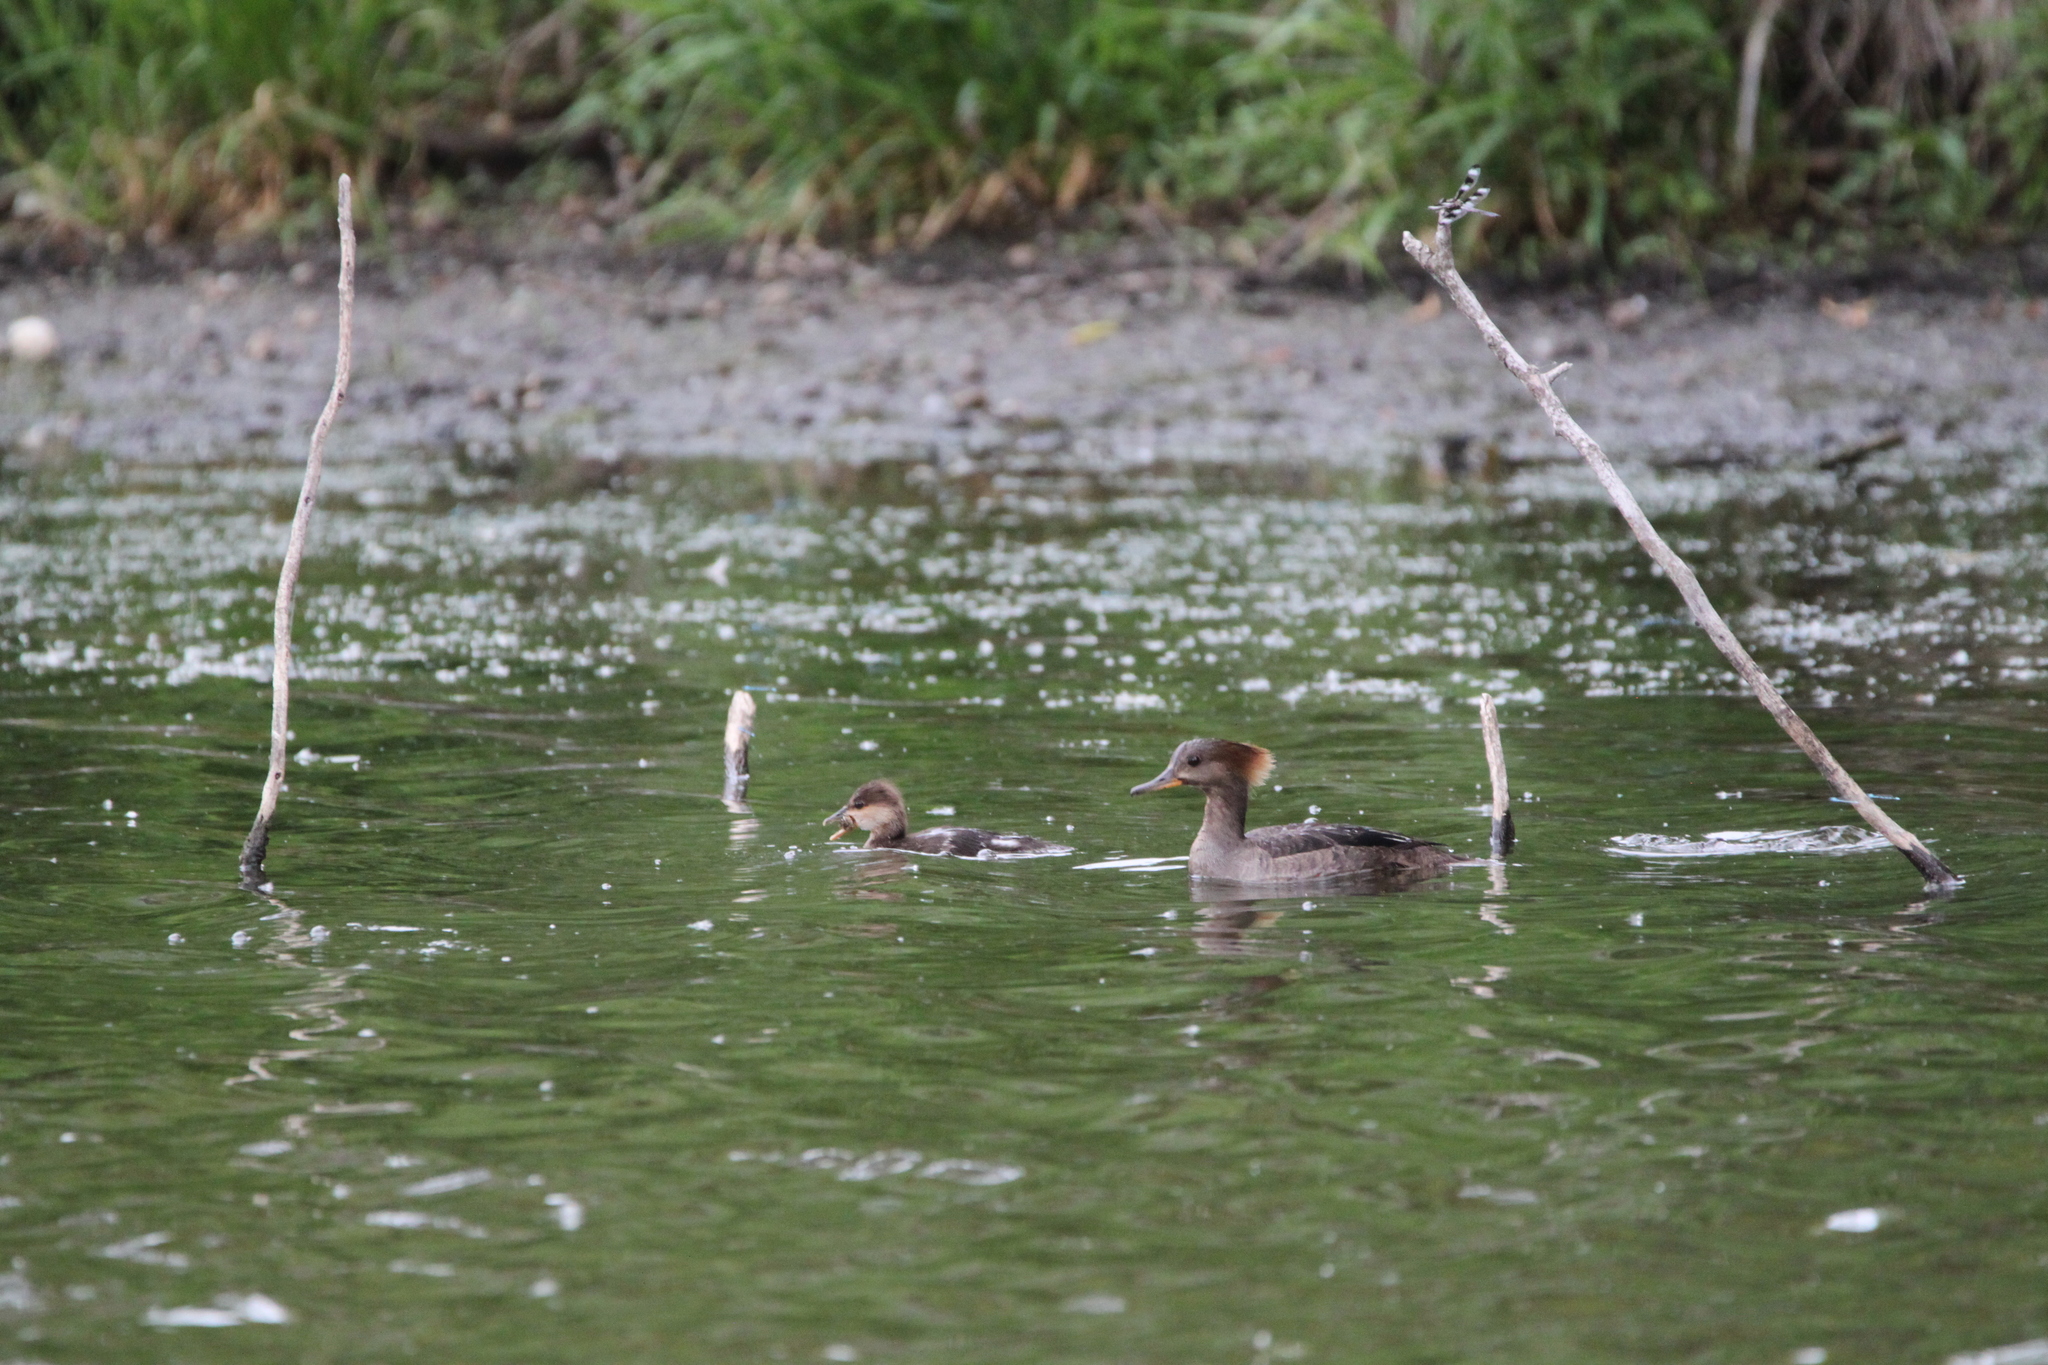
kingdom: Animalia
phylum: Chordata
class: Aves
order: Anseriformes
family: Anatidae
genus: Lophodytes
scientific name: Lophodytes cucullatus
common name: Hooded merganser
